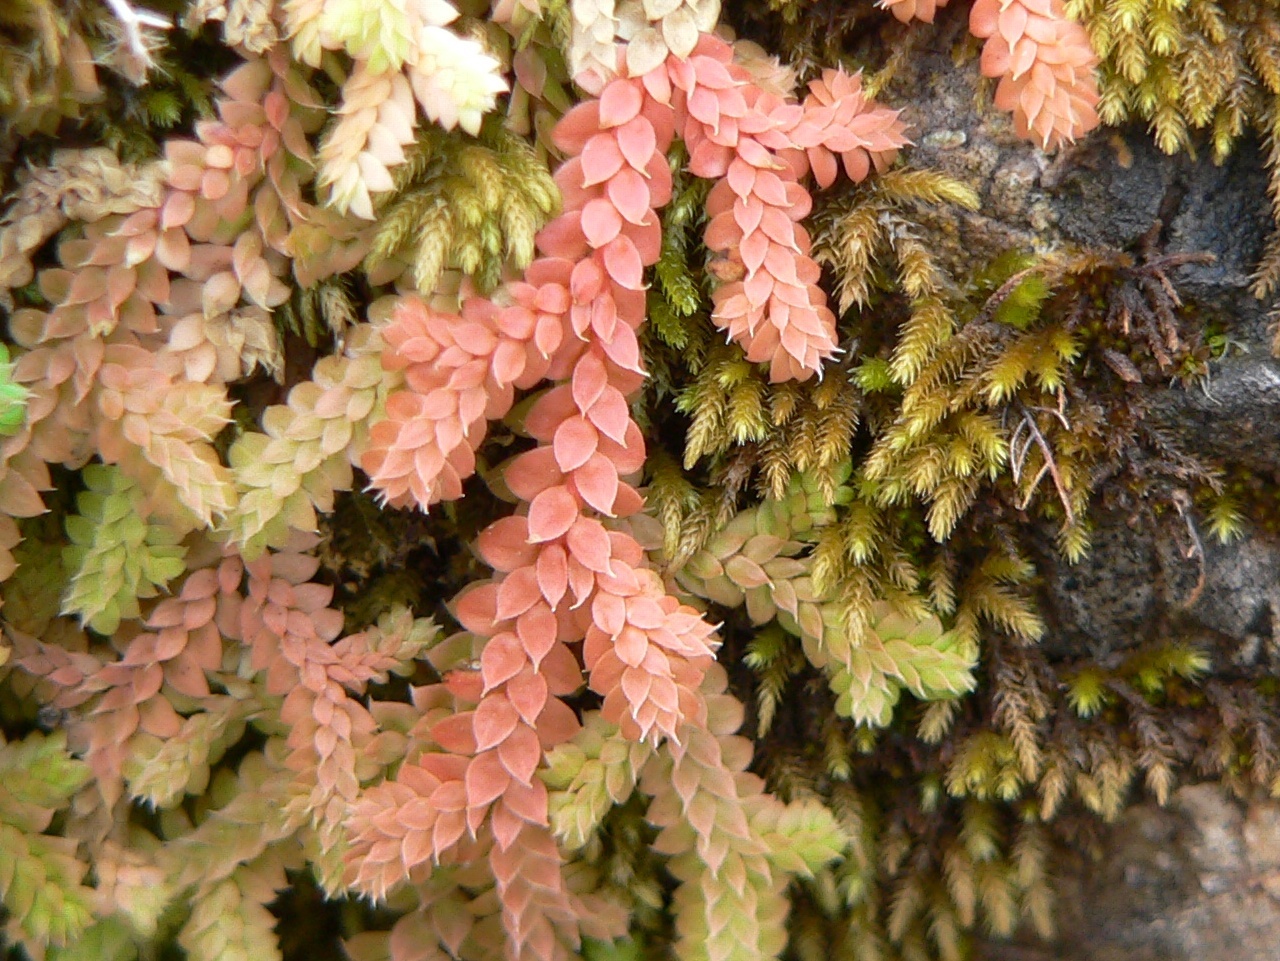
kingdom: Plantae
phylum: Tracheophyta
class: Lycopodiopsida
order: Selaginellales
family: Selaginellaceae
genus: Selaginella
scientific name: Selaginella denticulata
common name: Toothed-leaved clubmoss
